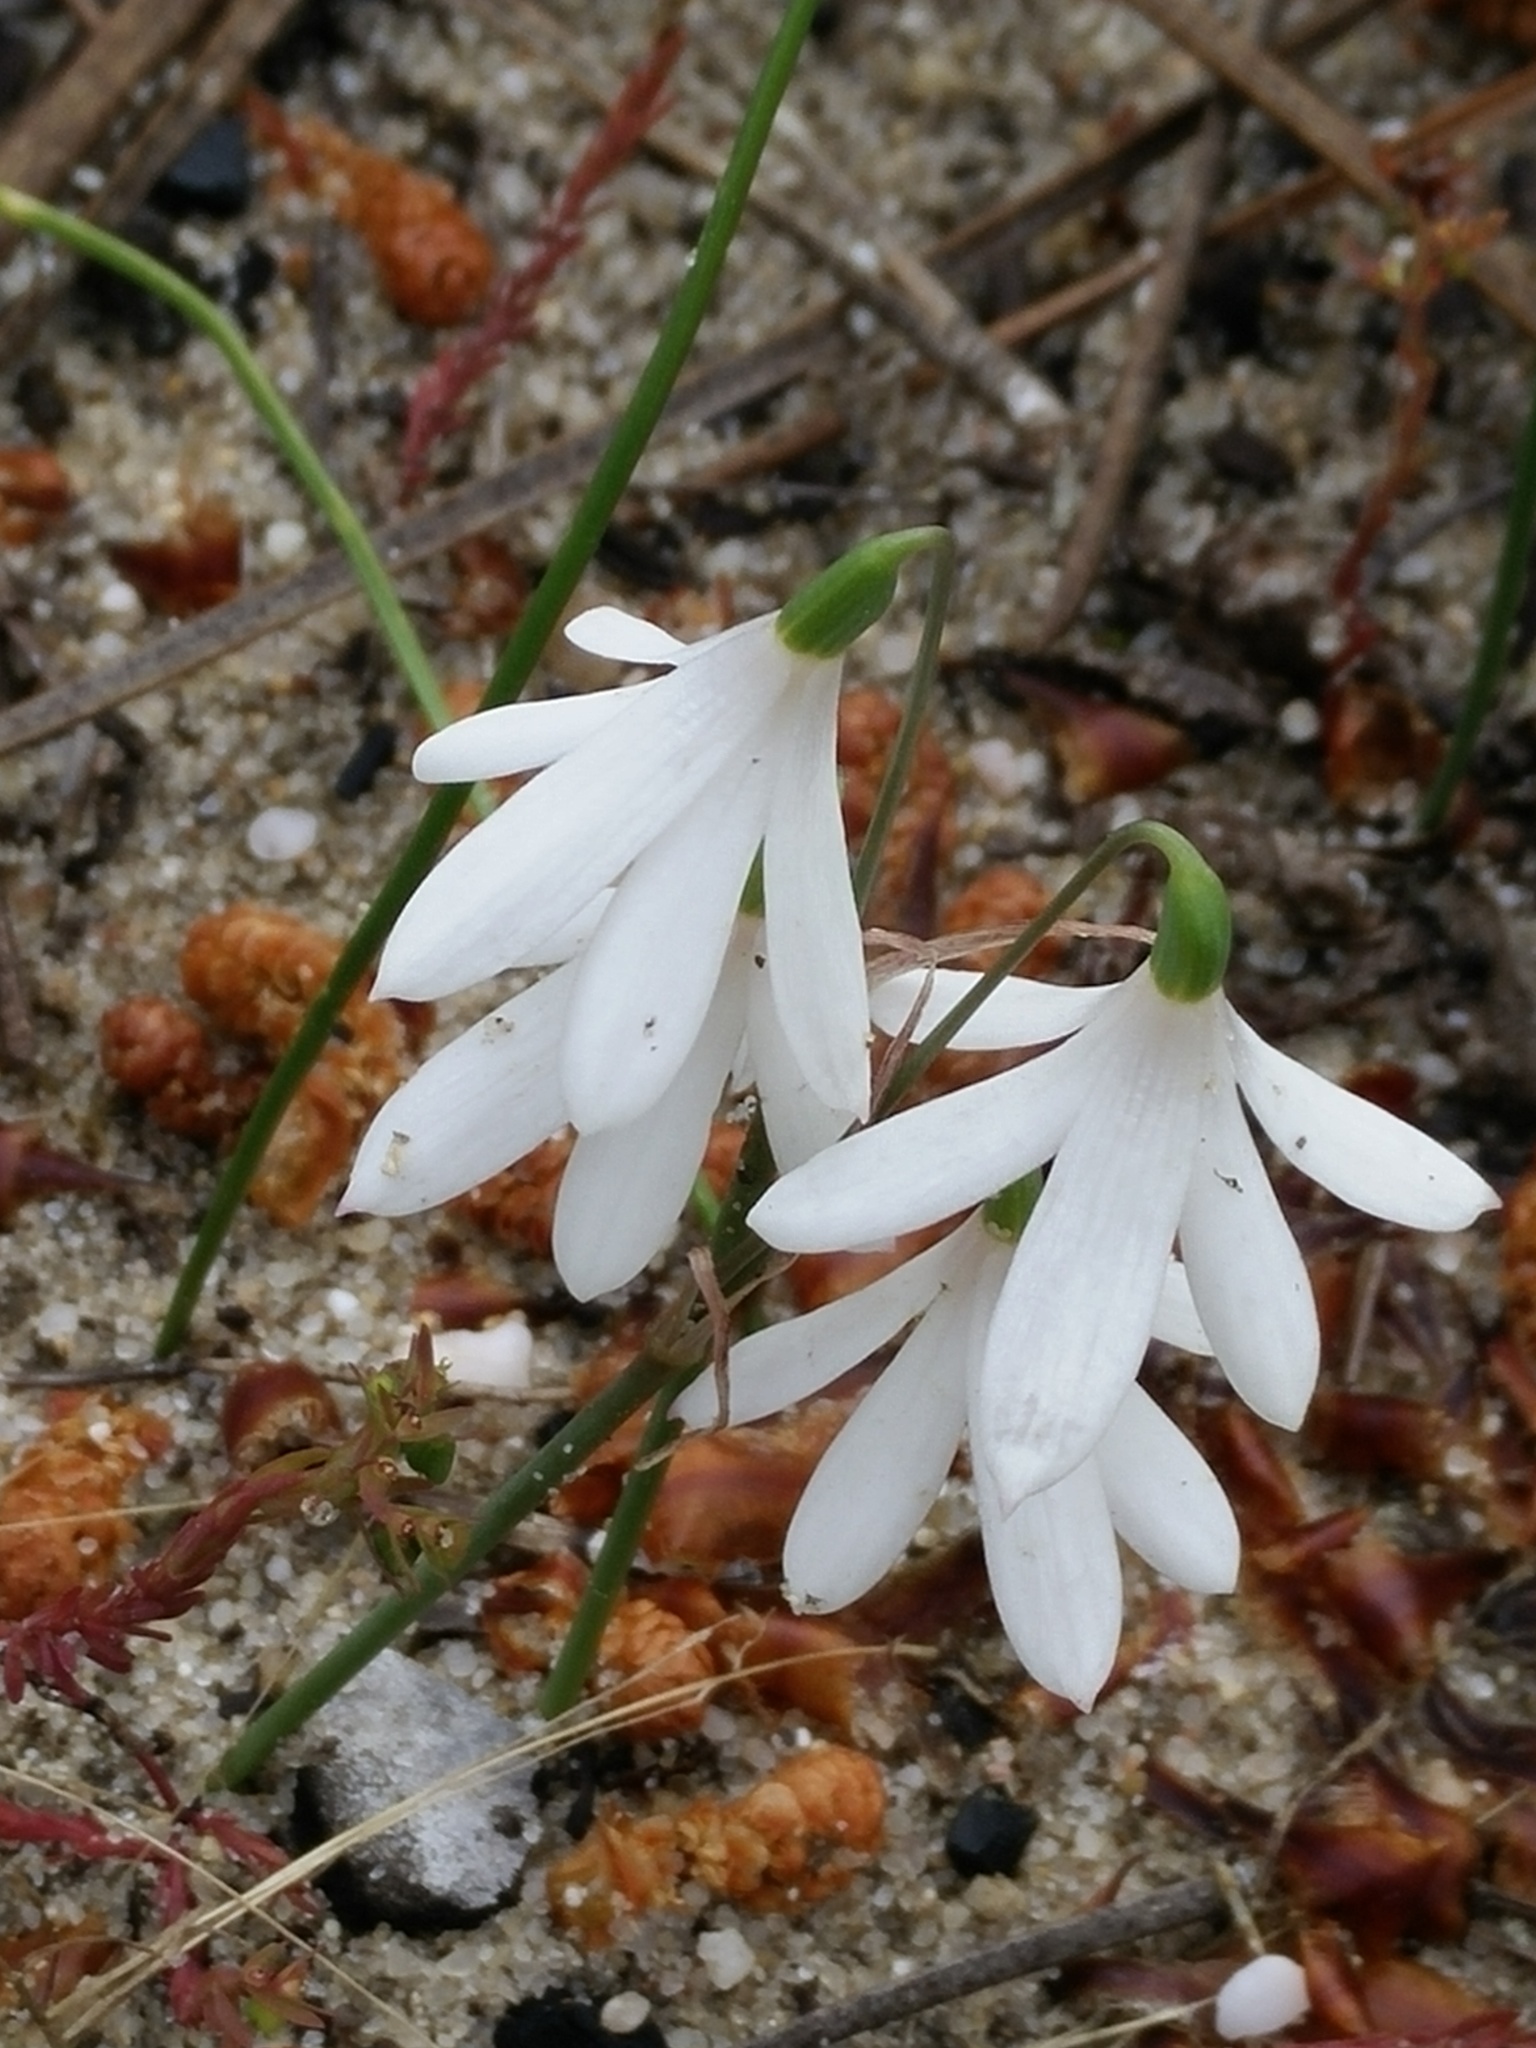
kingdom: Plantae
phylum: Tracheophyta
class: Liliopsida
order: Asparagales
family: Amaryllidaceae
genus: Acis
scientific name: Acis trichophylla
